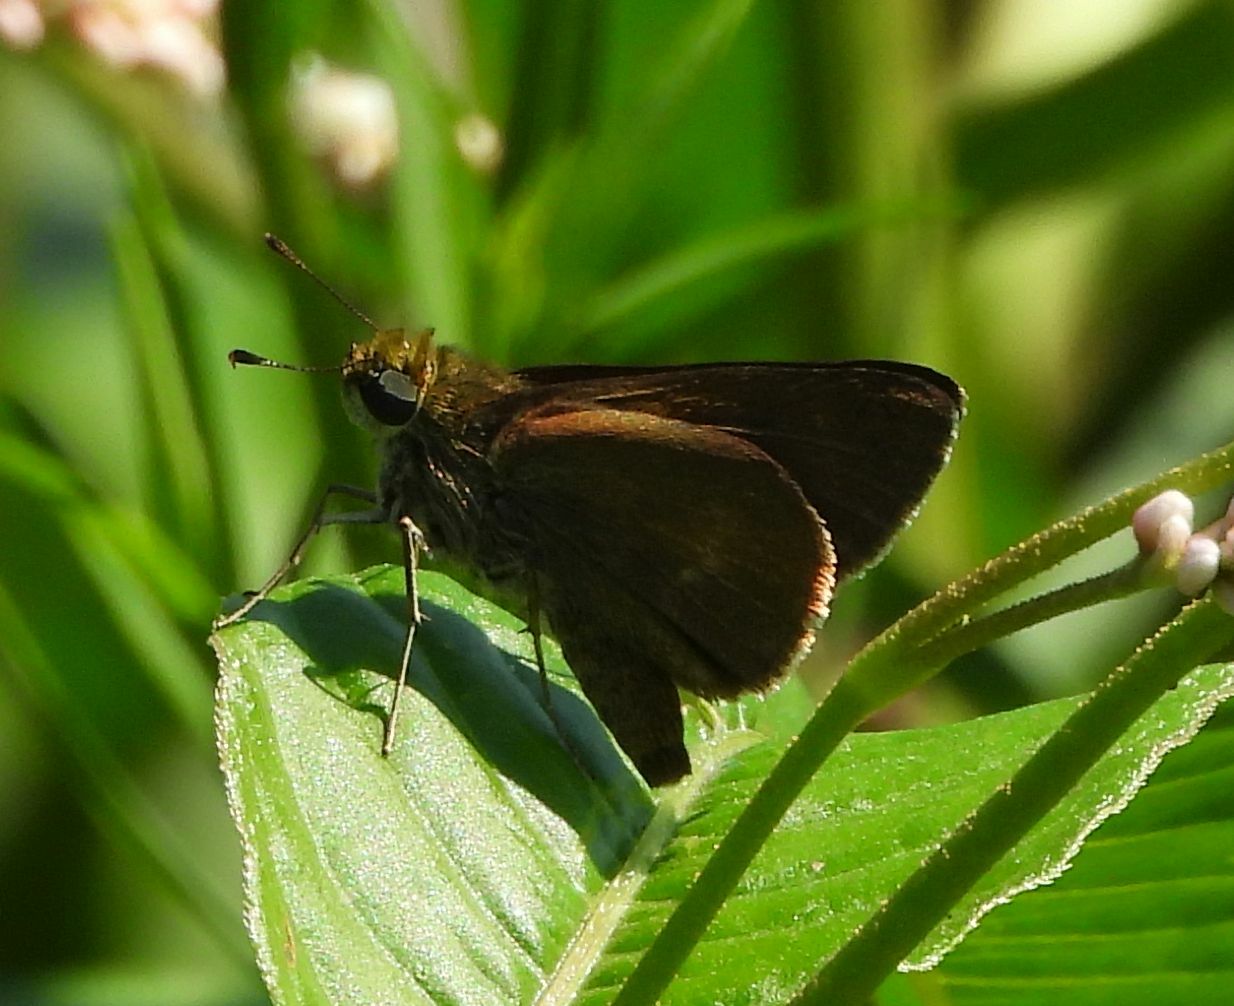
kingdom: Animalia
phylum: Arthropoda
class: Insecta
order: Lepidoptera
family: Hesperiidae
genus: Euphyes
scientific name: Euphyes vestris
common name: Dun skipper
